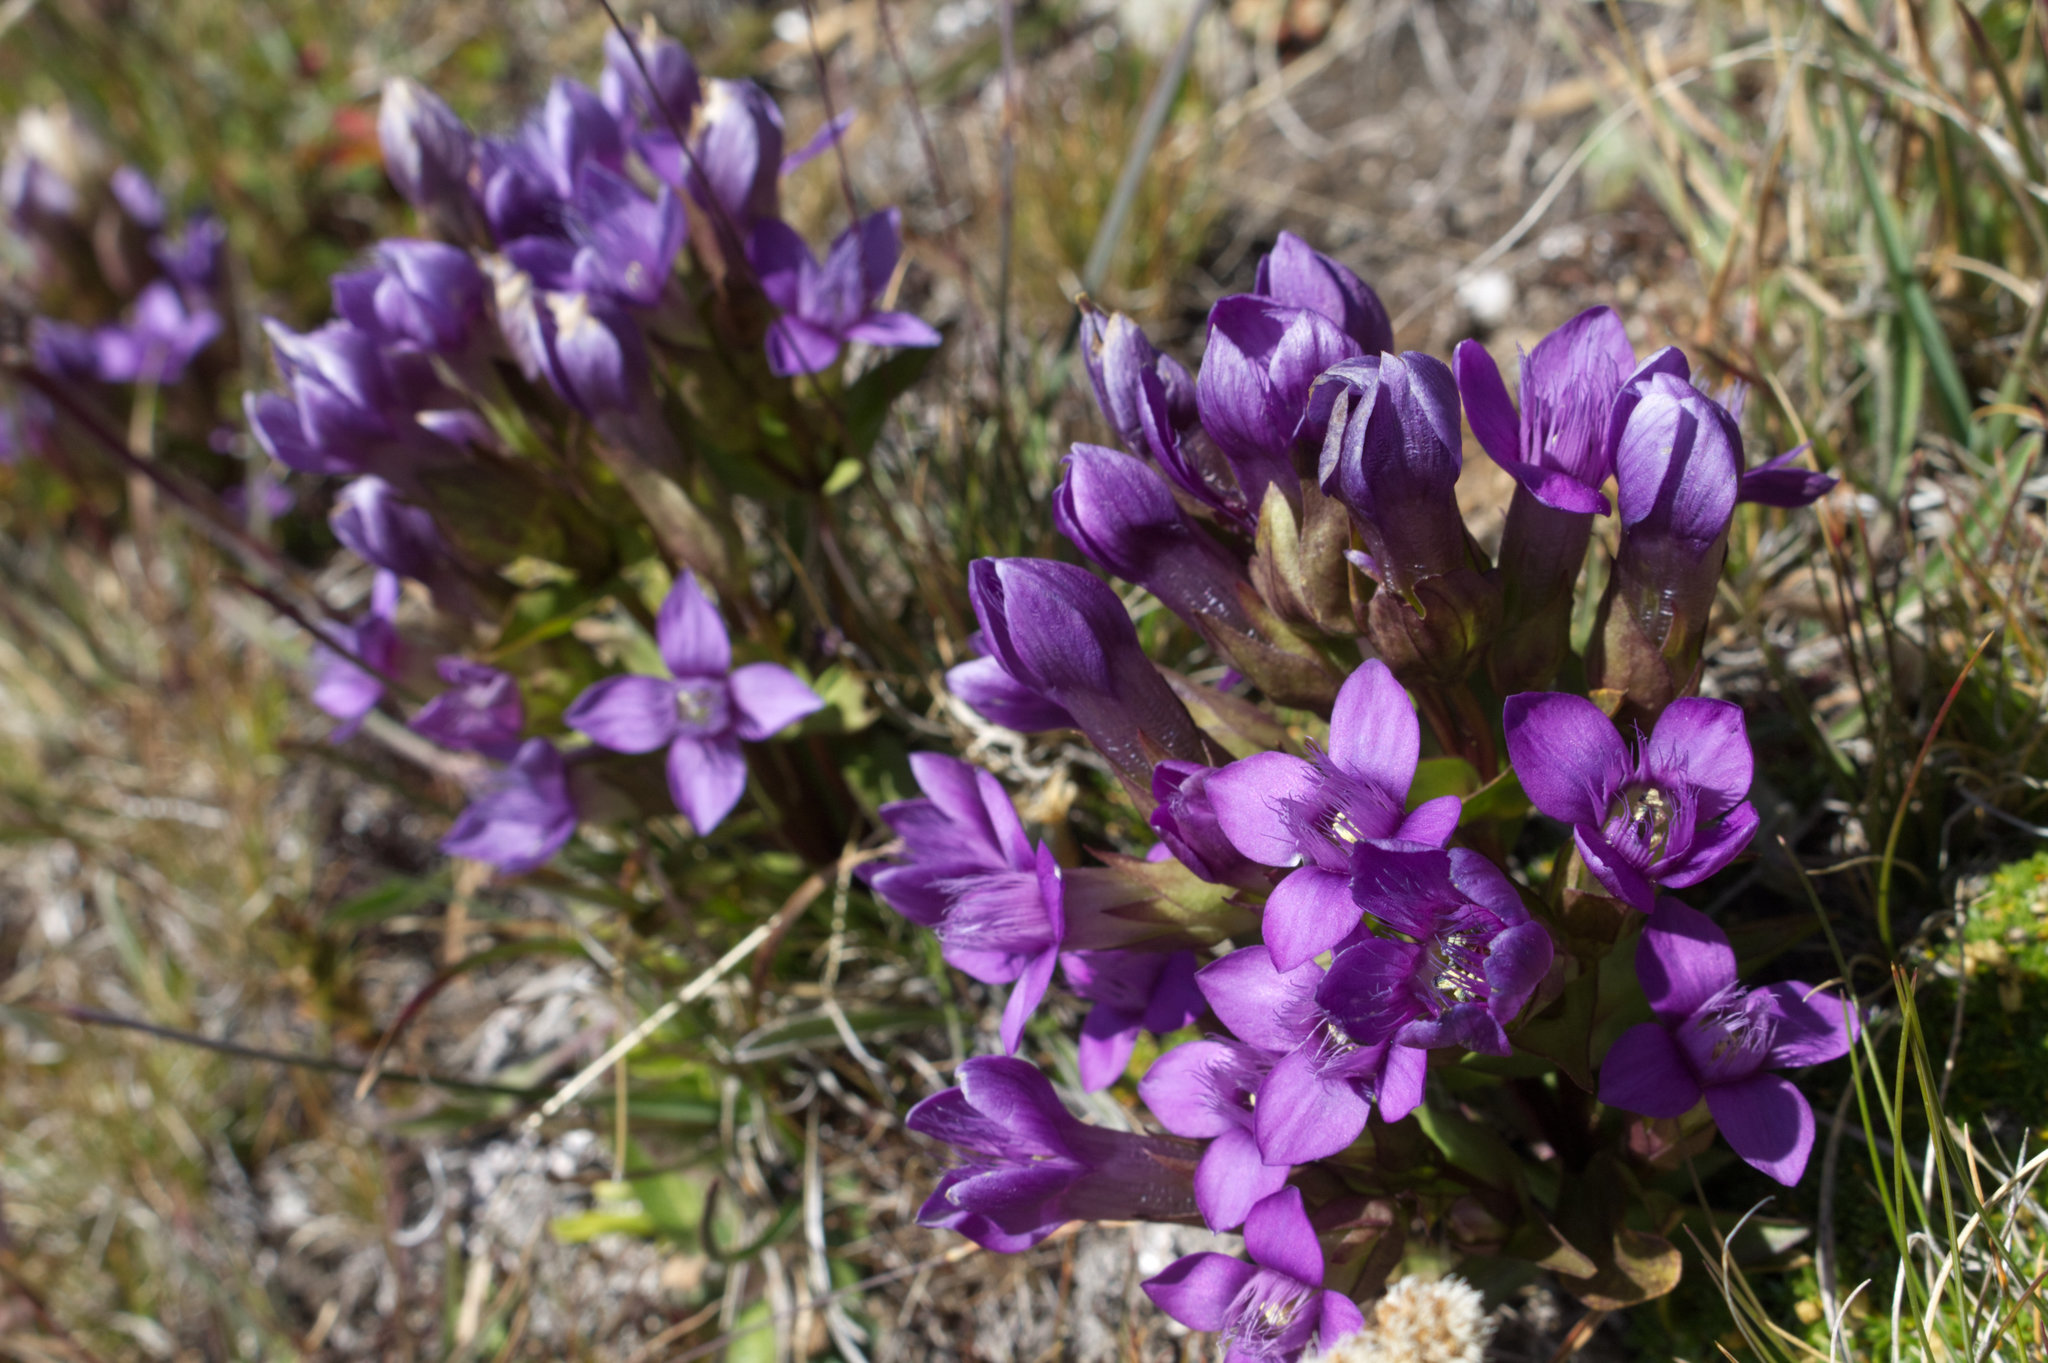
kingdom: Plantae
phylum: Tracheophyta
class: Magnoliopsida
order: Gentianales
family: Gentianaceae
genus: Gentianella
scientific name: Gentianella campestris
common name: Field gentian
